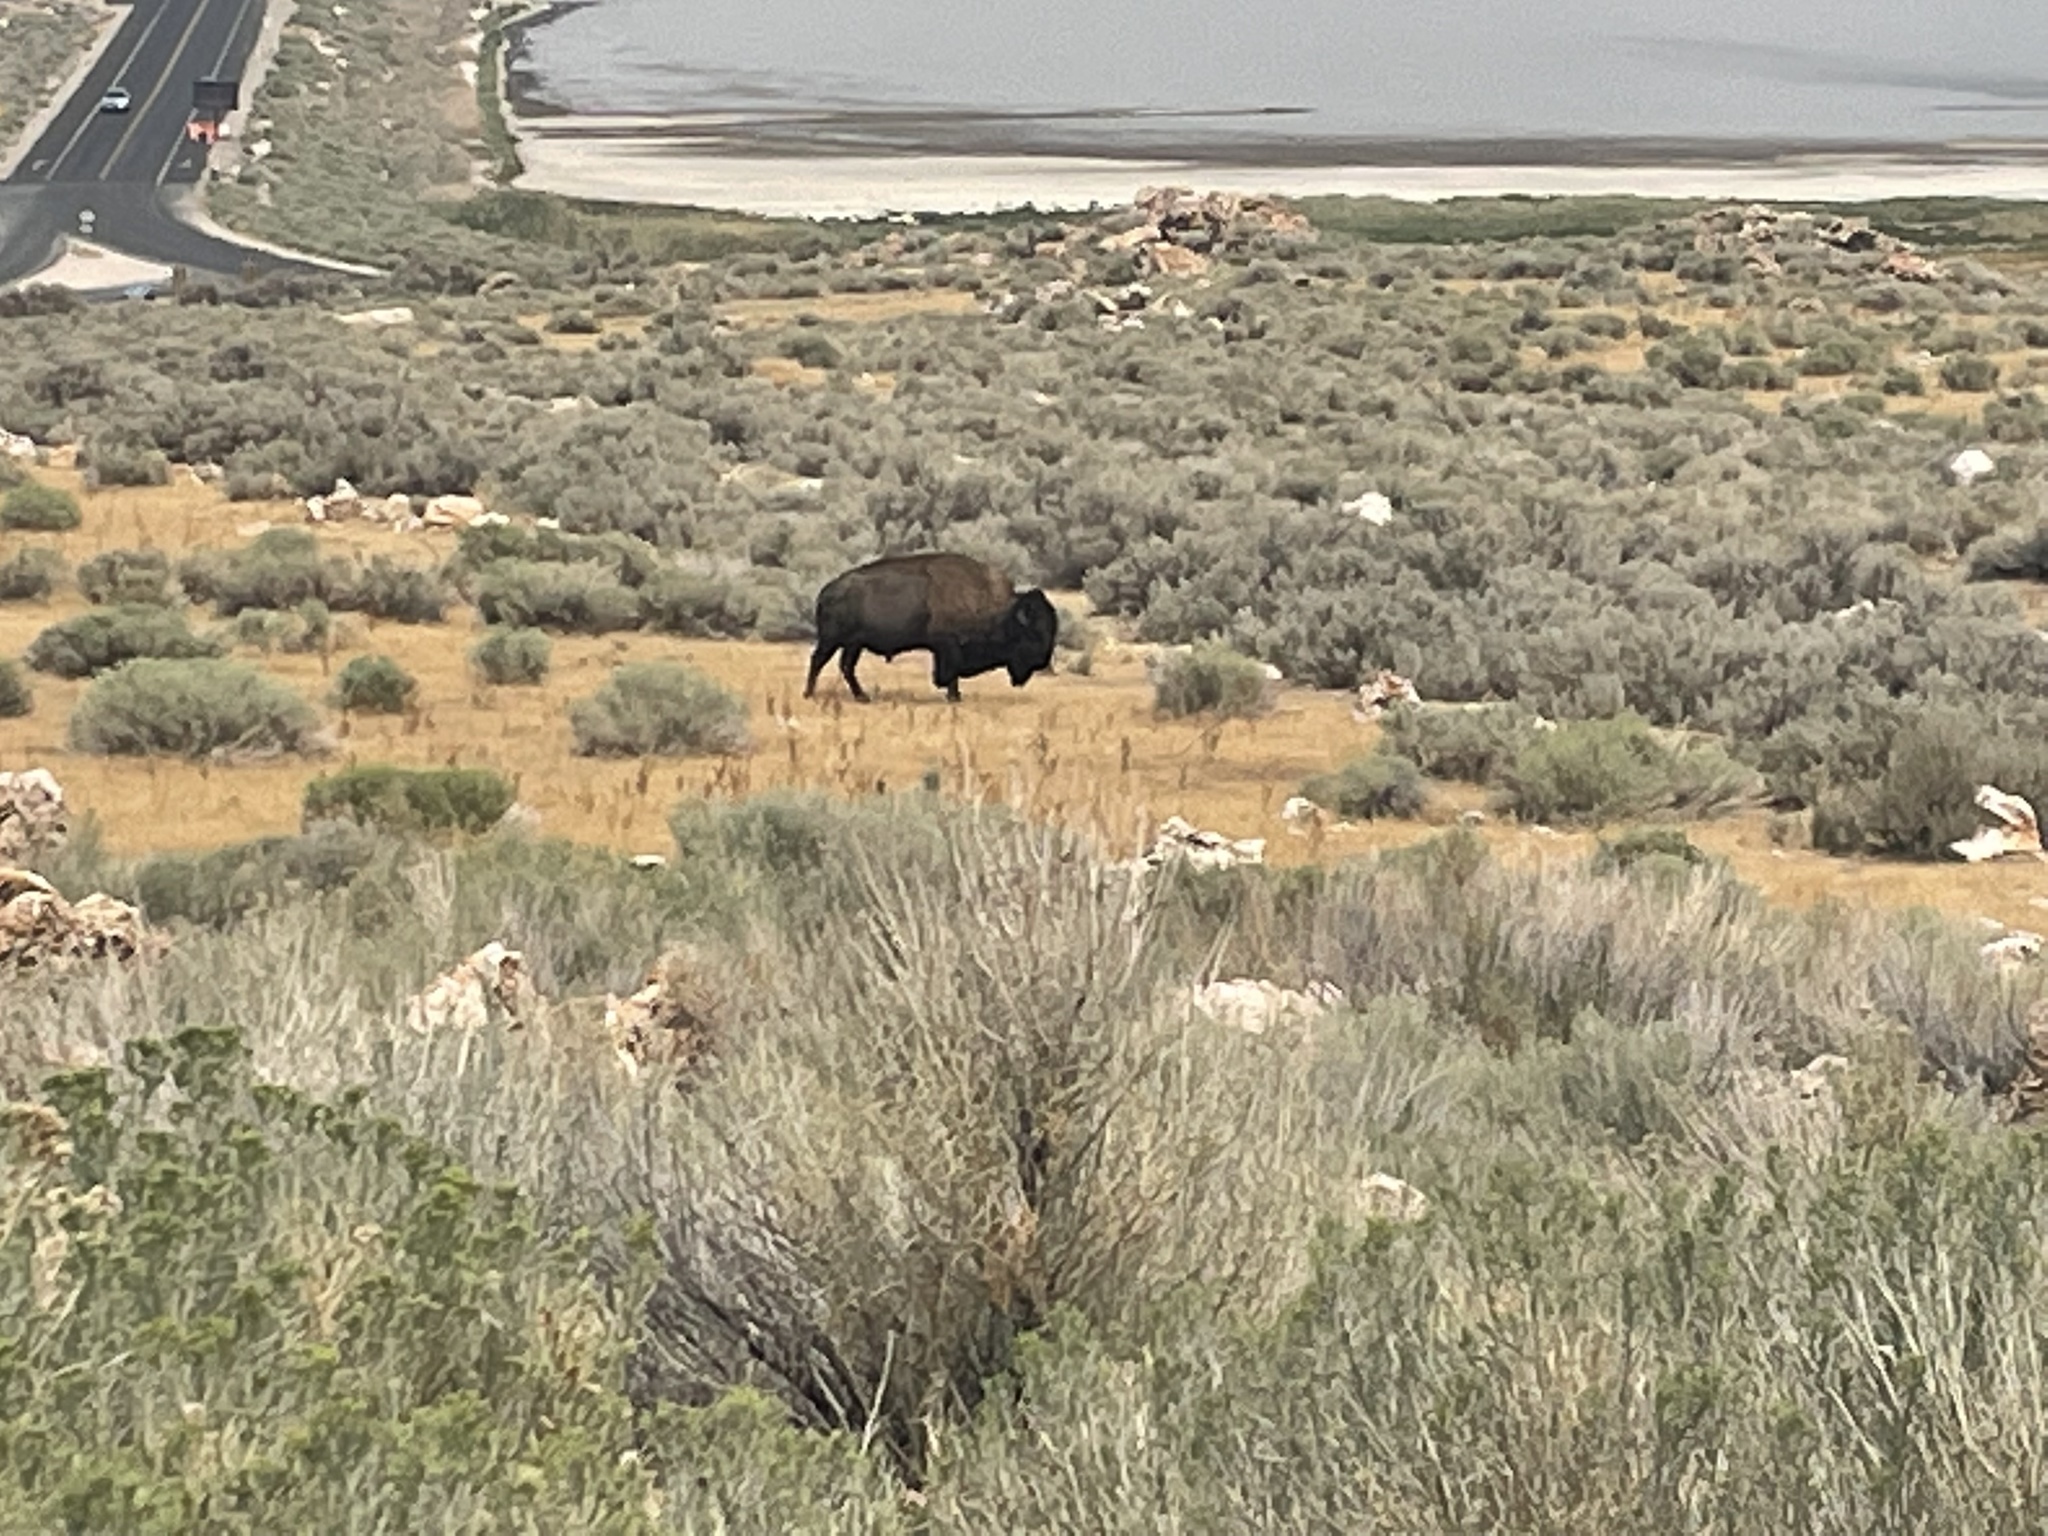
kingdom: Animalia
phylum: Chordata
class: Mammalia
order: Artiodactyla
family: Bovidae
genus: Bison
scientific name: Bison bison
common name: American bison
